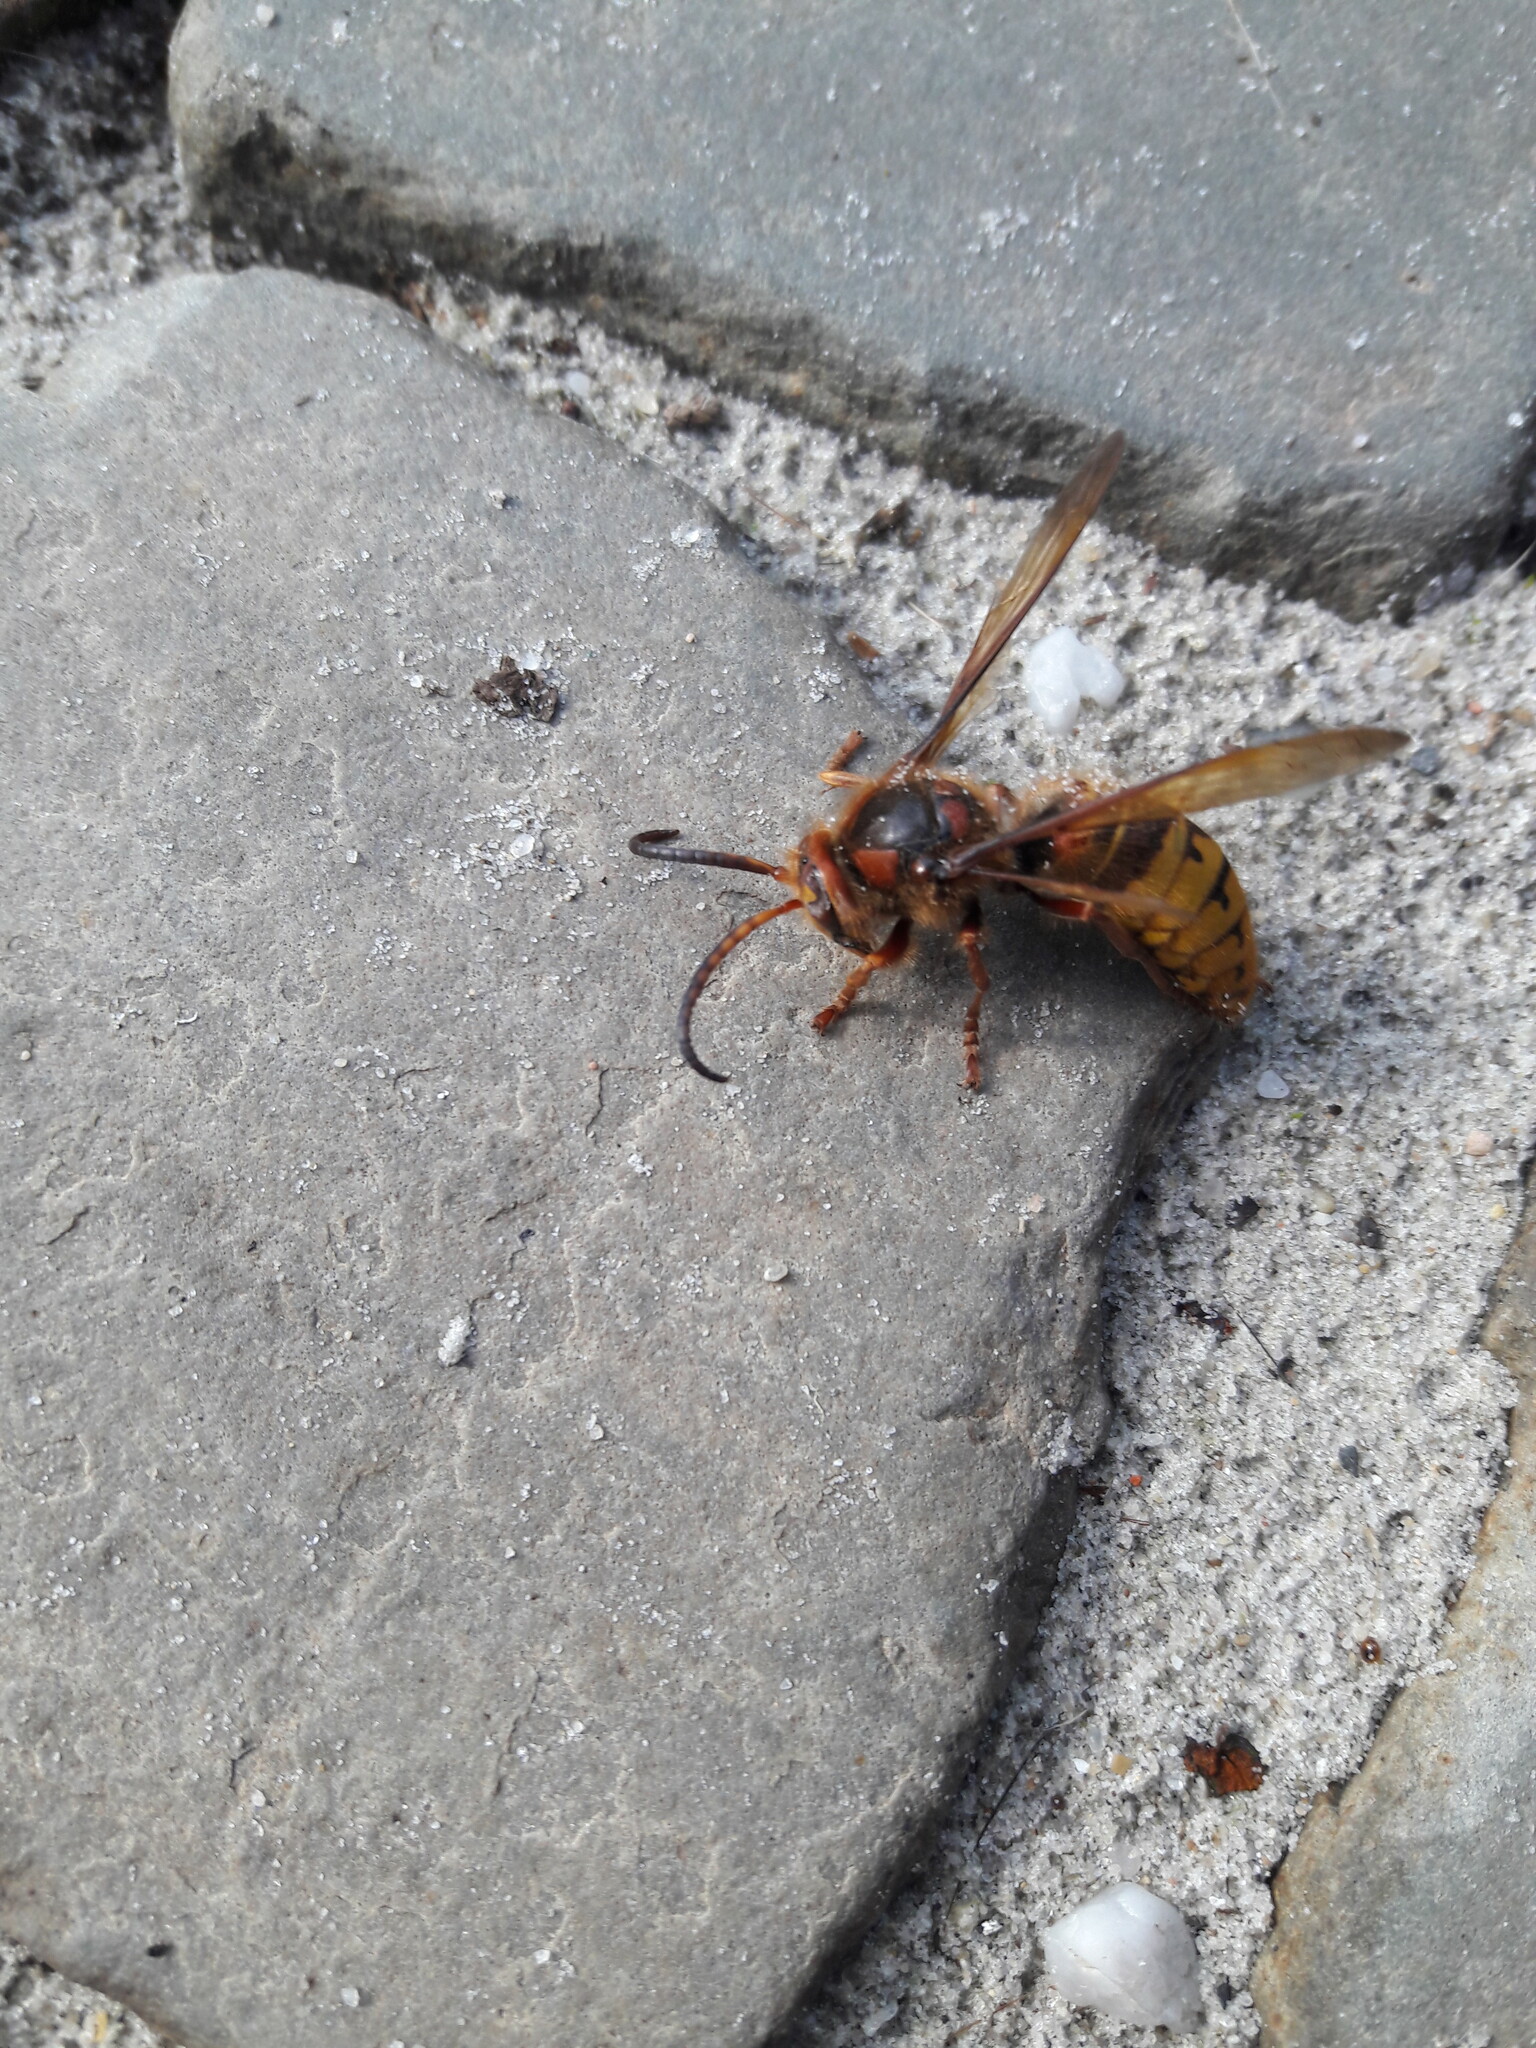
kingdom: Animalia
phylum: Arthropoda
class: Insecta
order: Hymenoptera
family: Vespidae
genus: Vespa
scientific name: Vespa crabro
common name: Hornet
